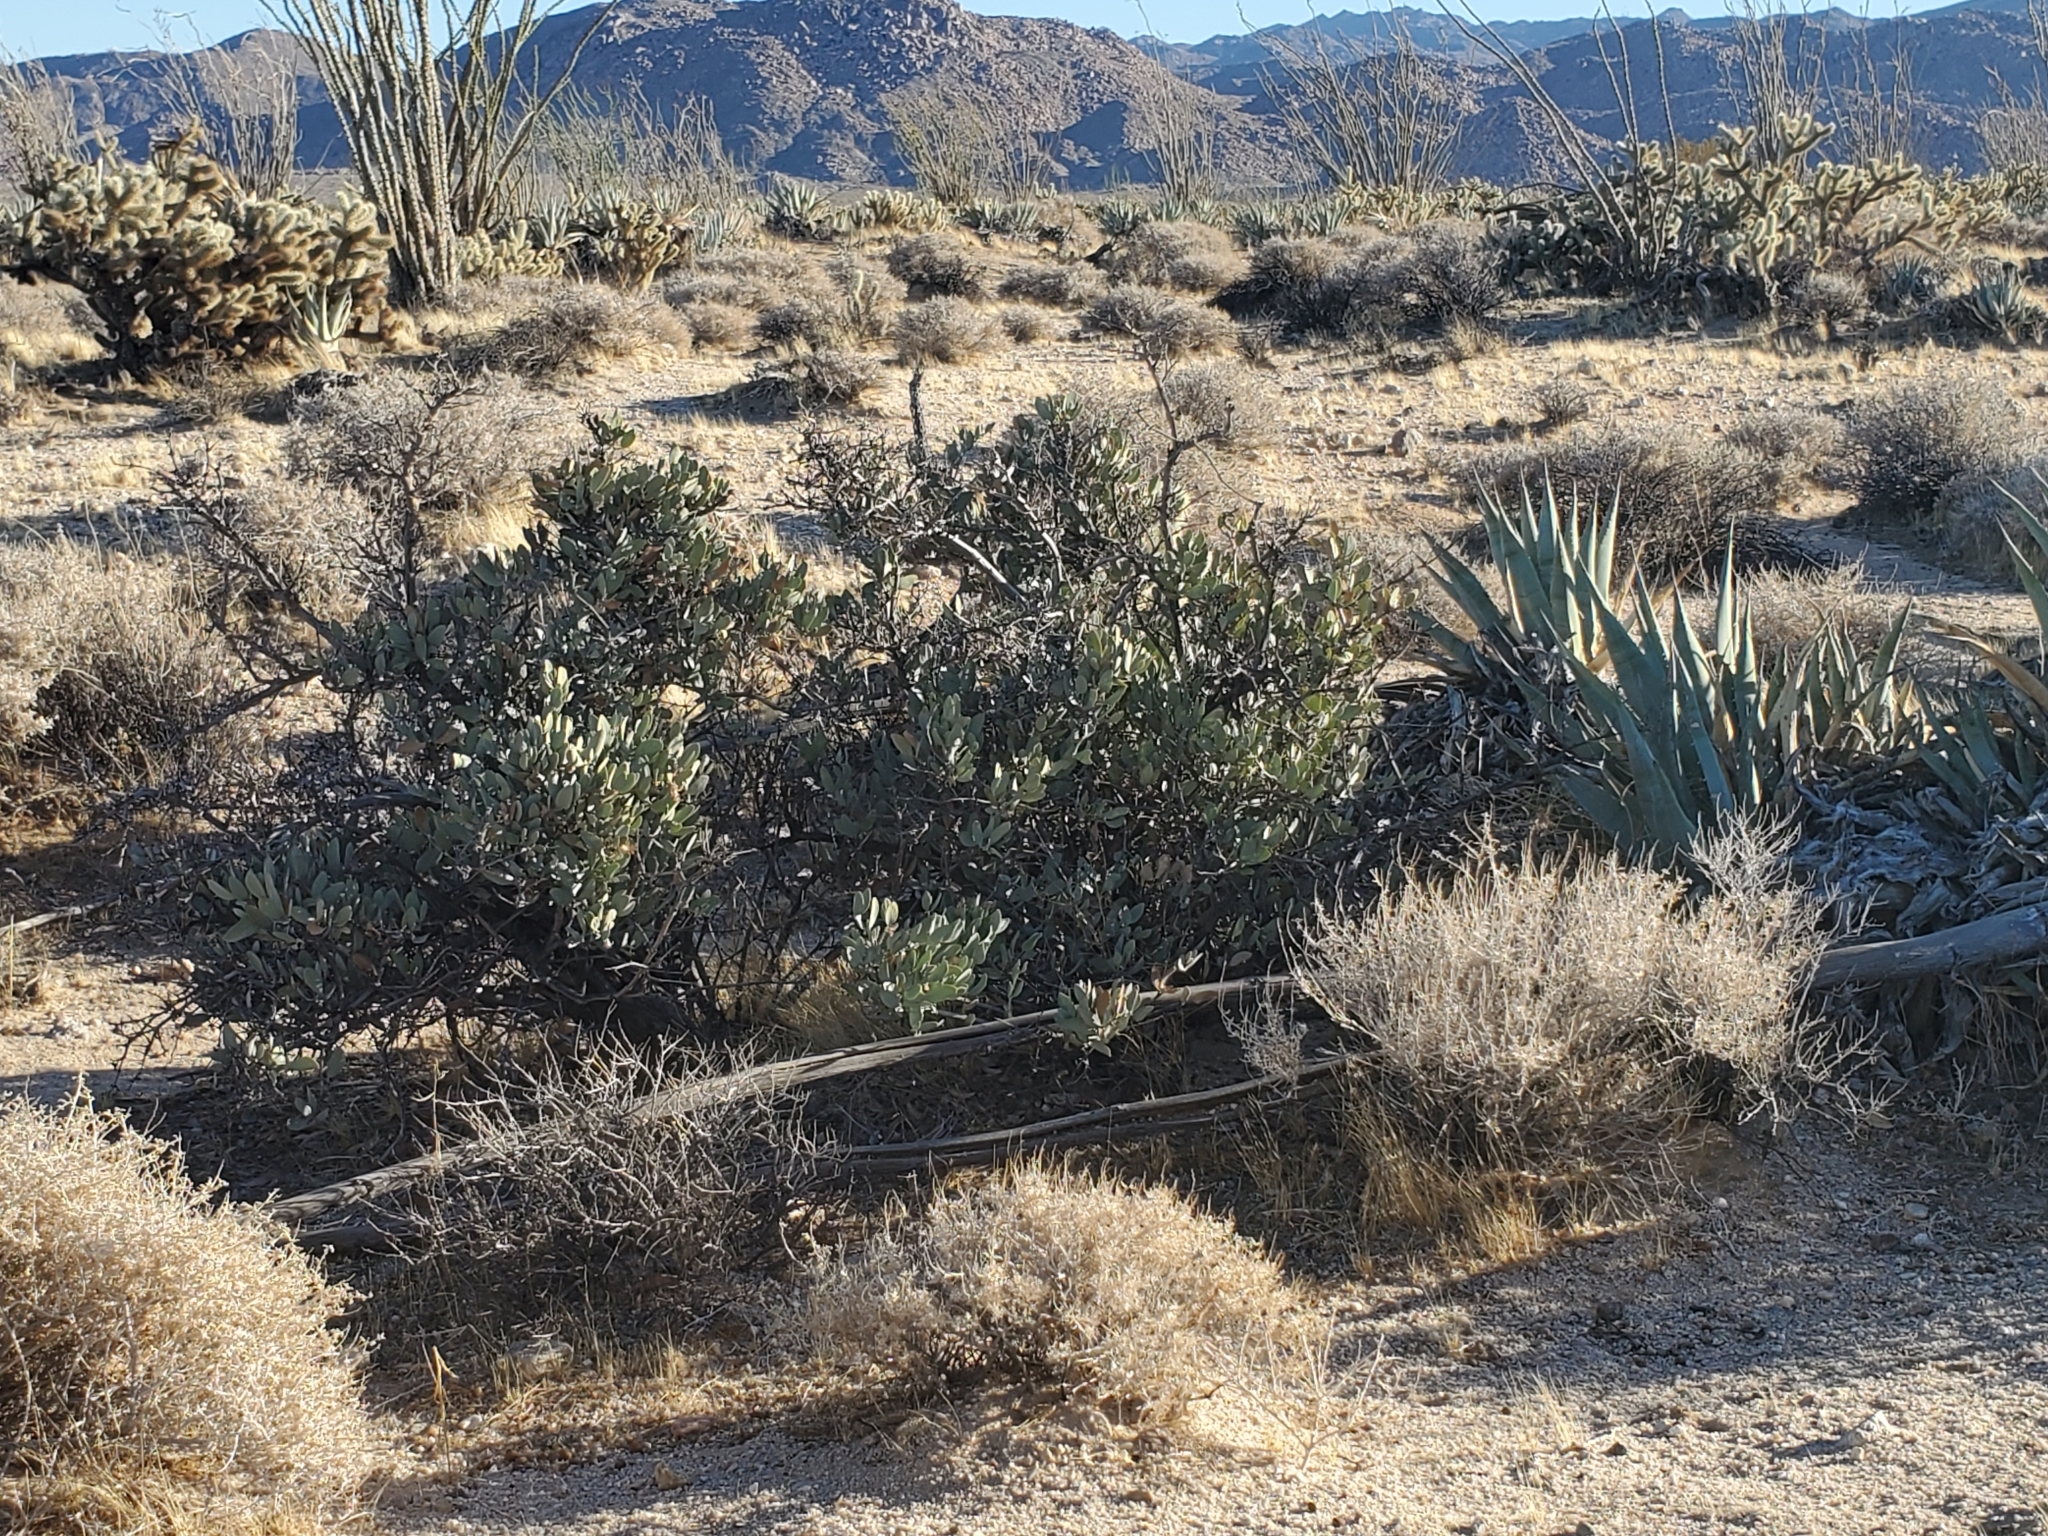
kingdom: Plantae
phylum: Tracheophyta
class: Magnoliopsida
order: Caryophyllales
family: Simmondsiaceae
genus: Simmondsia
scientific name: Simmondsia chinensis
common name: Jojoba
